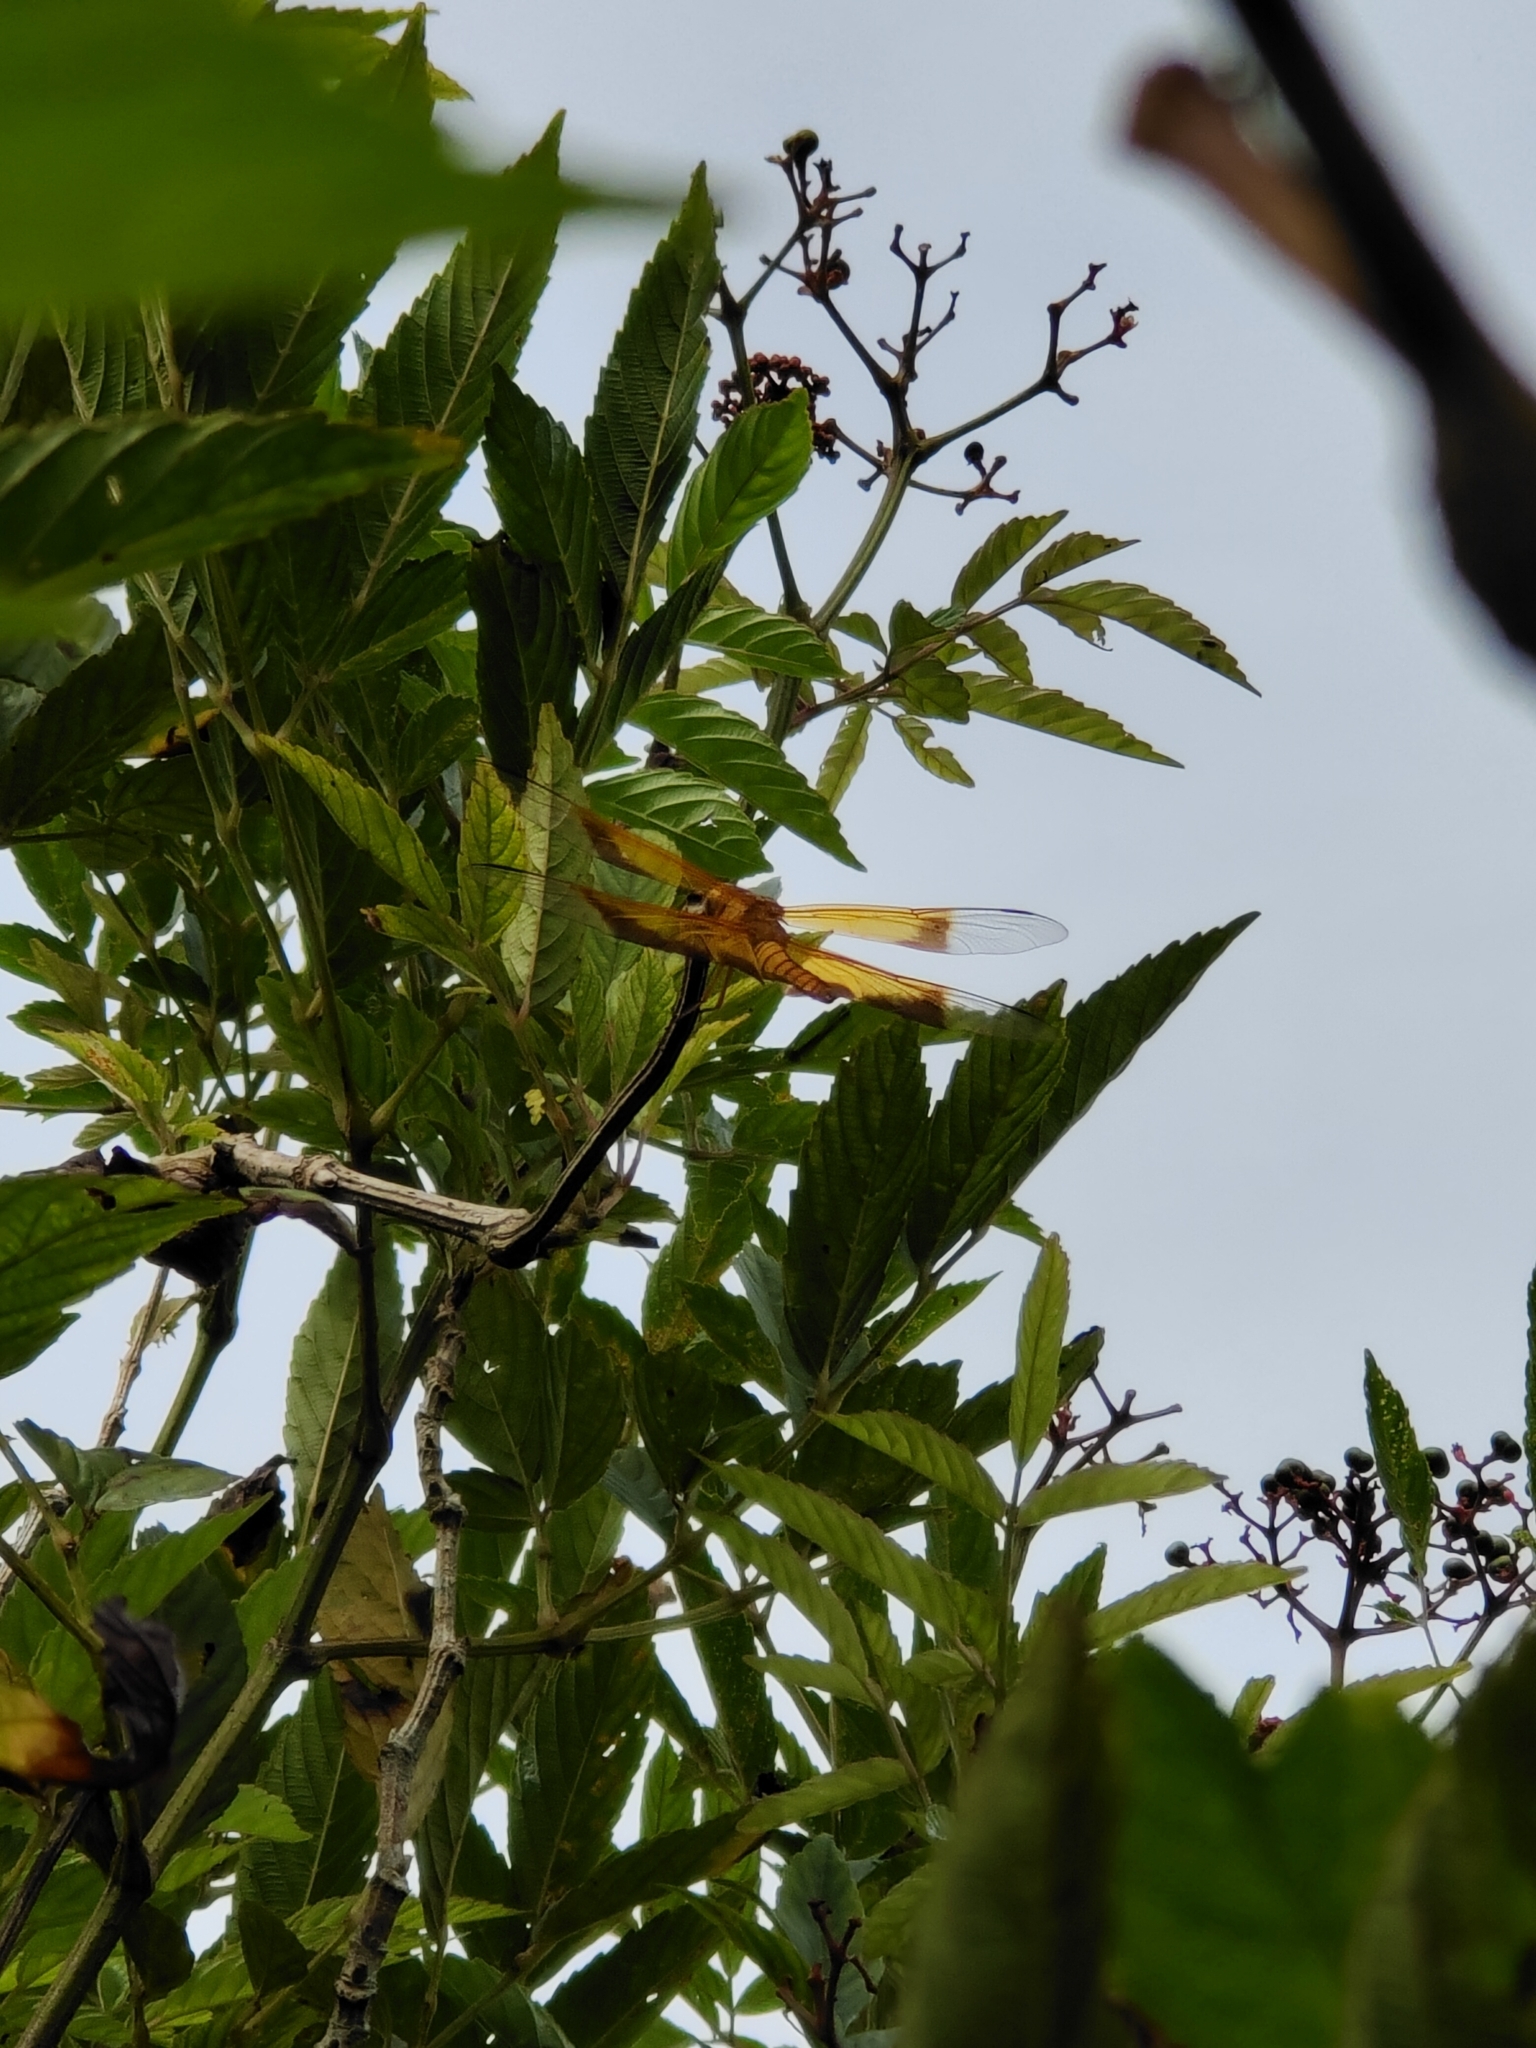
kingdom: Animalia
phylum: Arthropoda
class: Insecta
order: Odonata
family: Libellulidae
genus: Camacinia
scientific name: Camacinia gigantea
